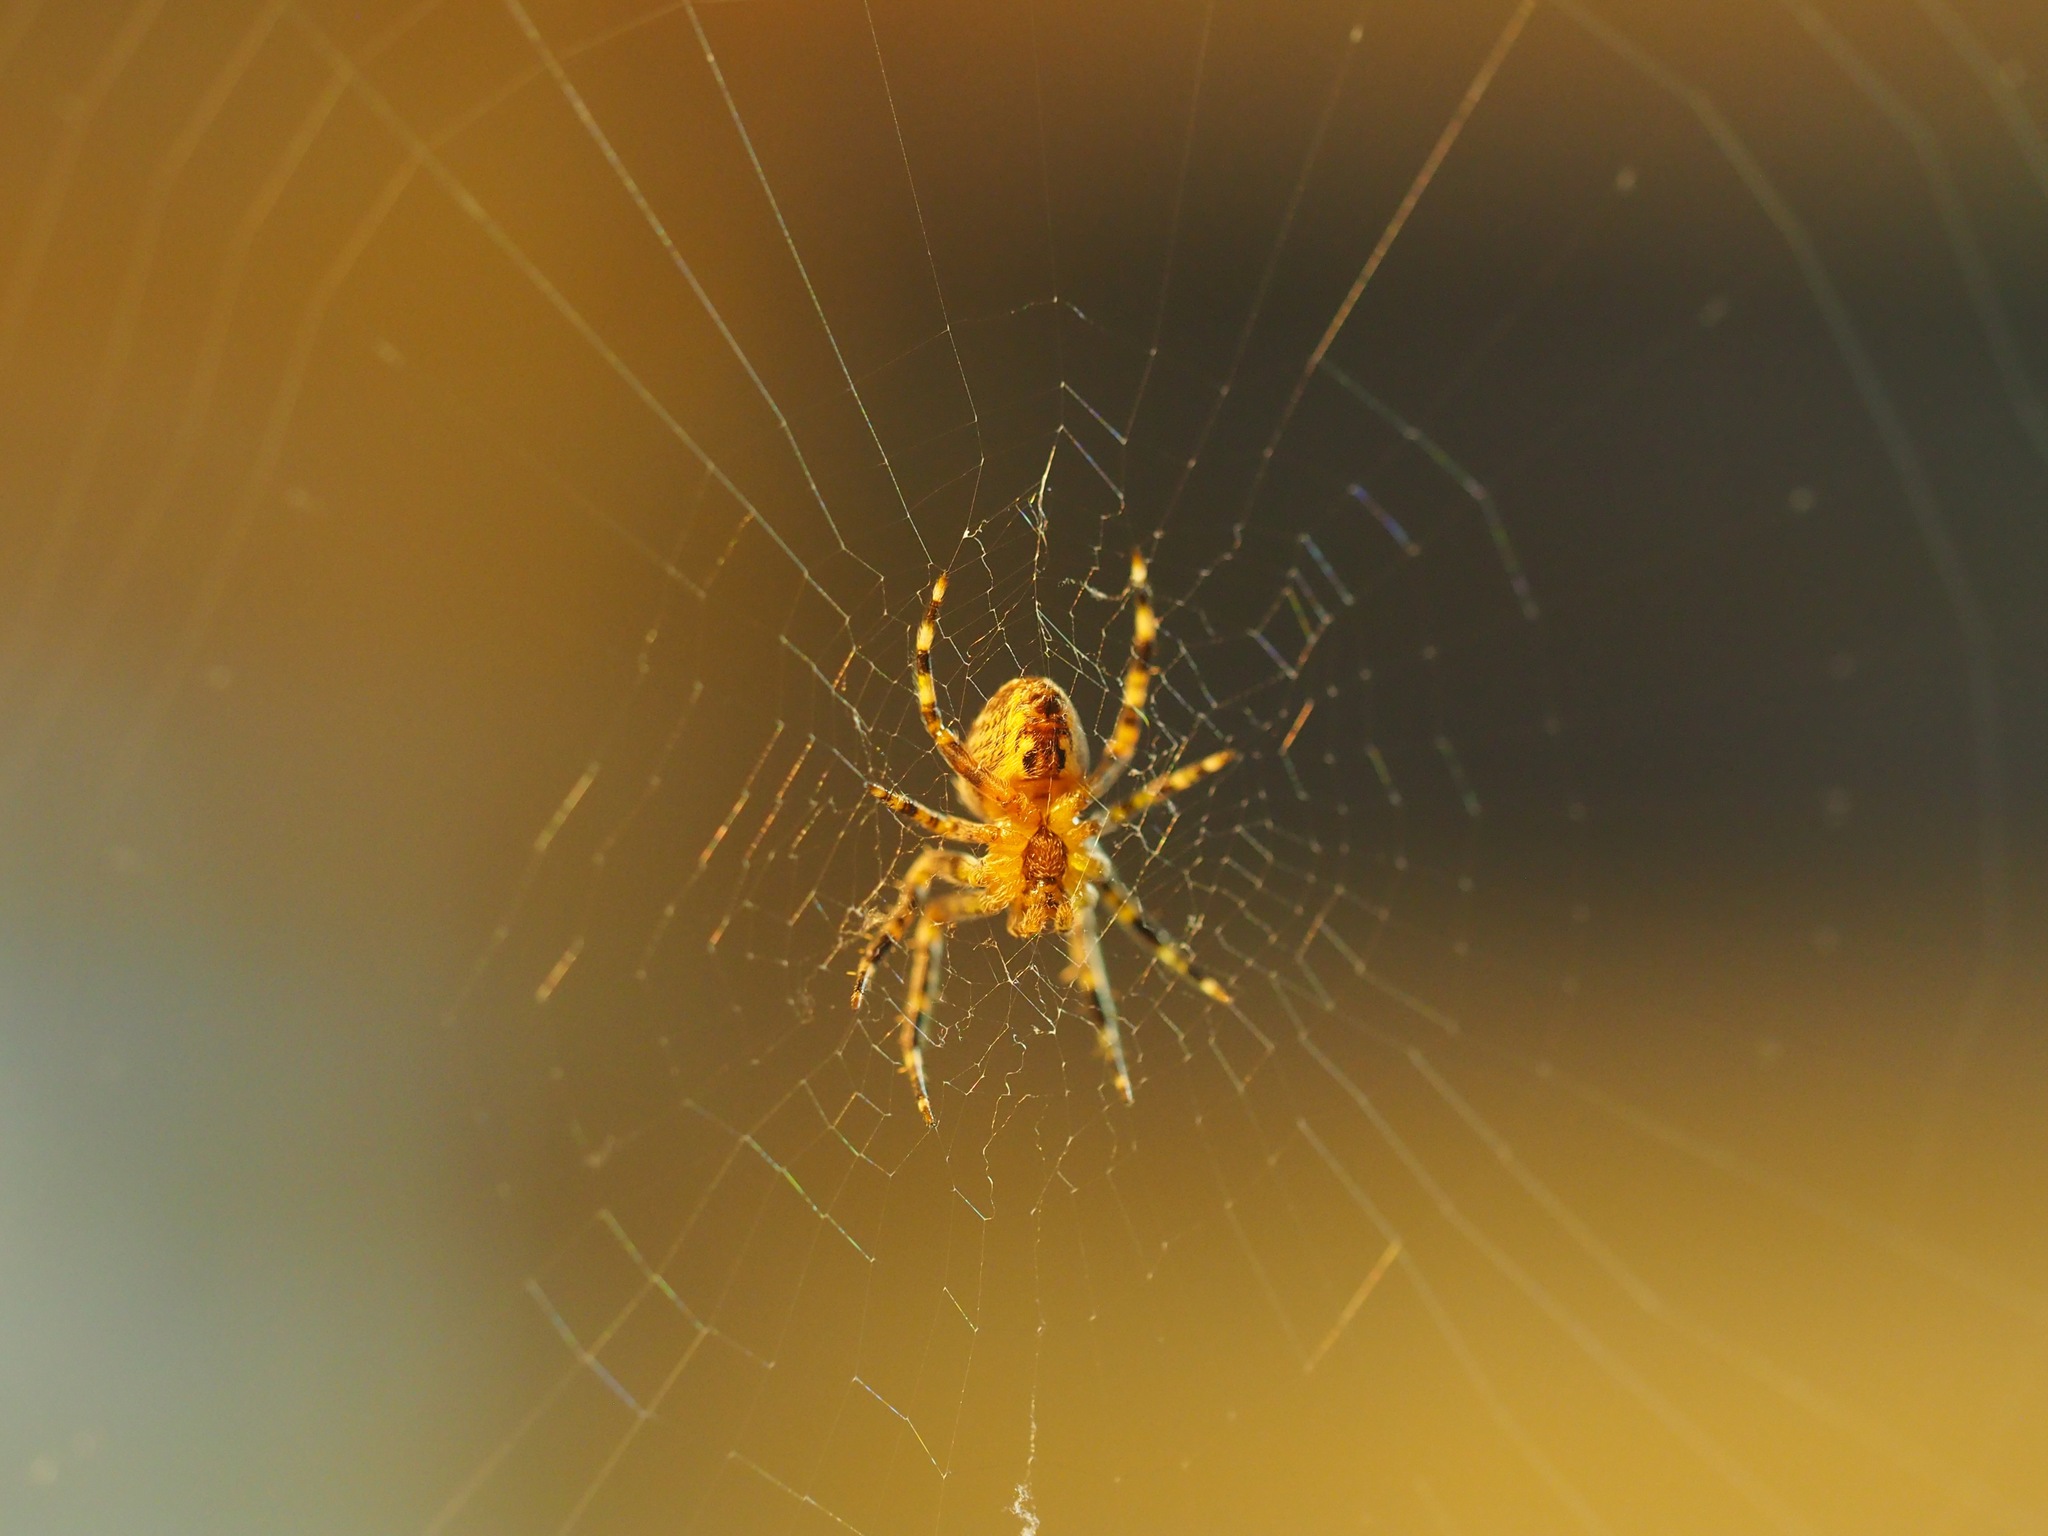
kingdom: Animalia
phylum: Arthropoda
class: Arachnida
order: Araneae
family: Araneidae
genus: Araneus
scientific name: Araneus diadematus
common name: Cross orbweaver
